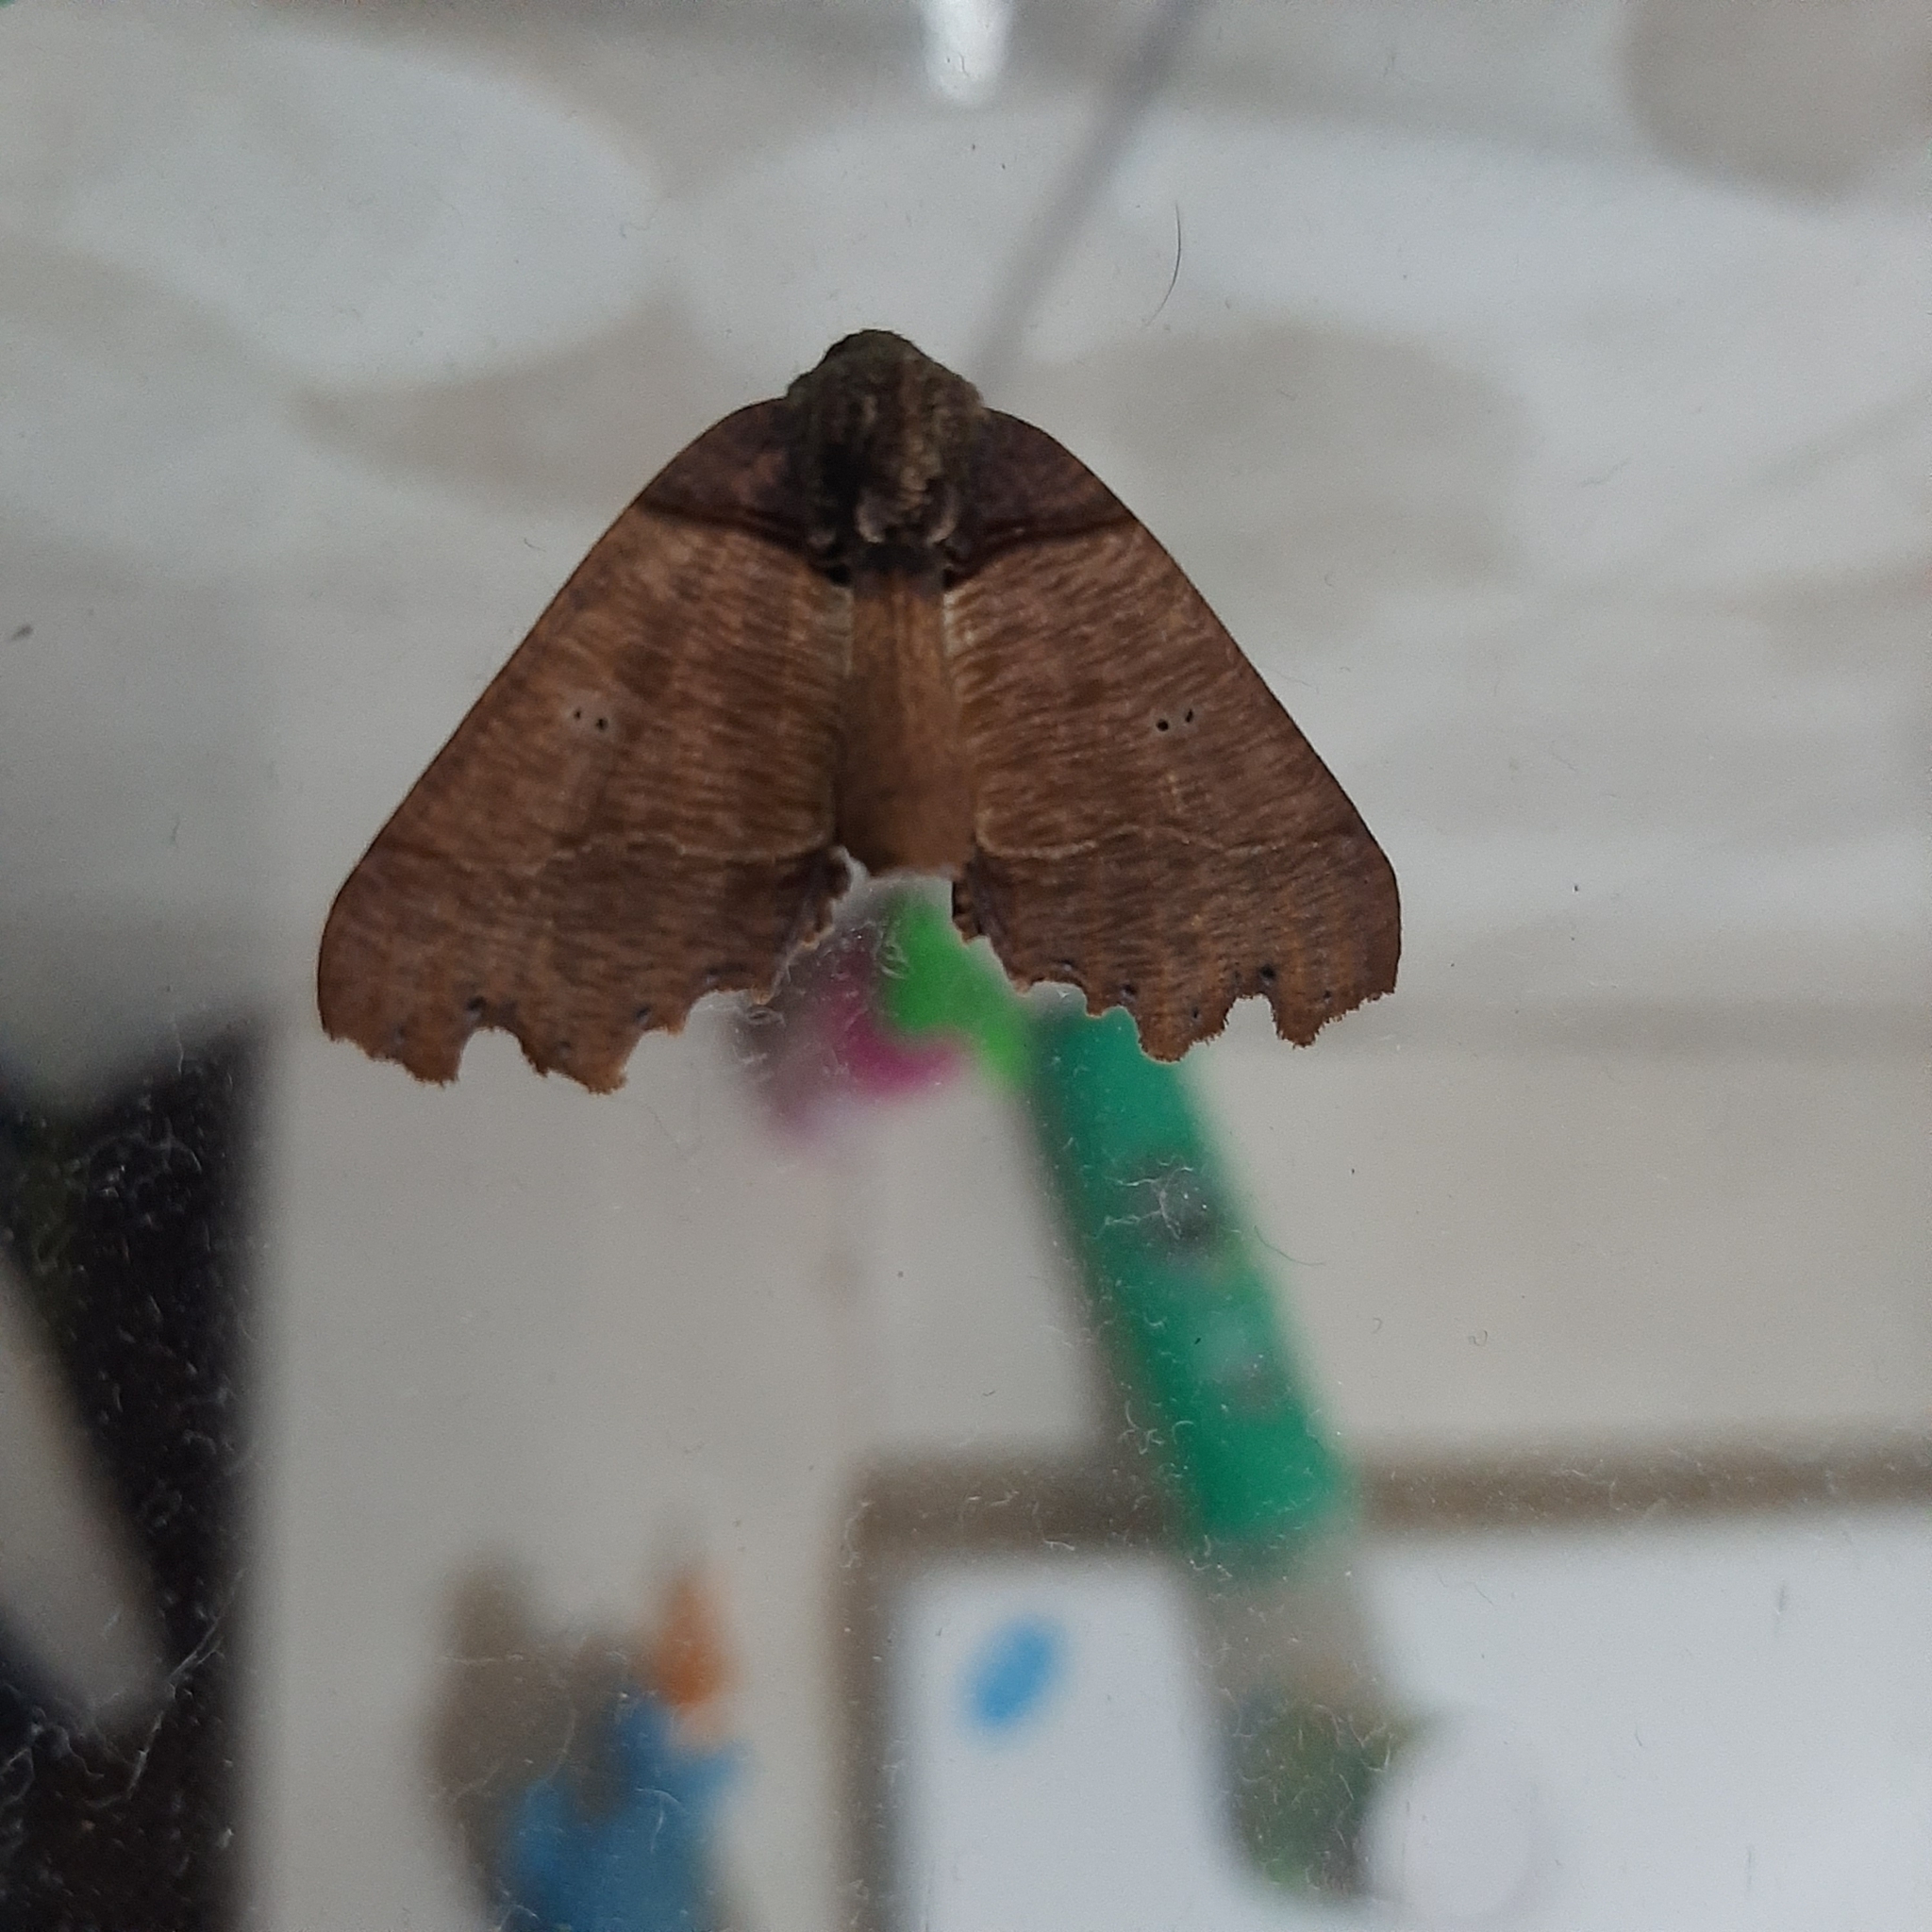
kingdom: Animalia
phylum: Arthropoda
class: Insecta
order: Lepidoptera
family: Geometridae
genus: Pero
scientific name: Pero polygonaria
